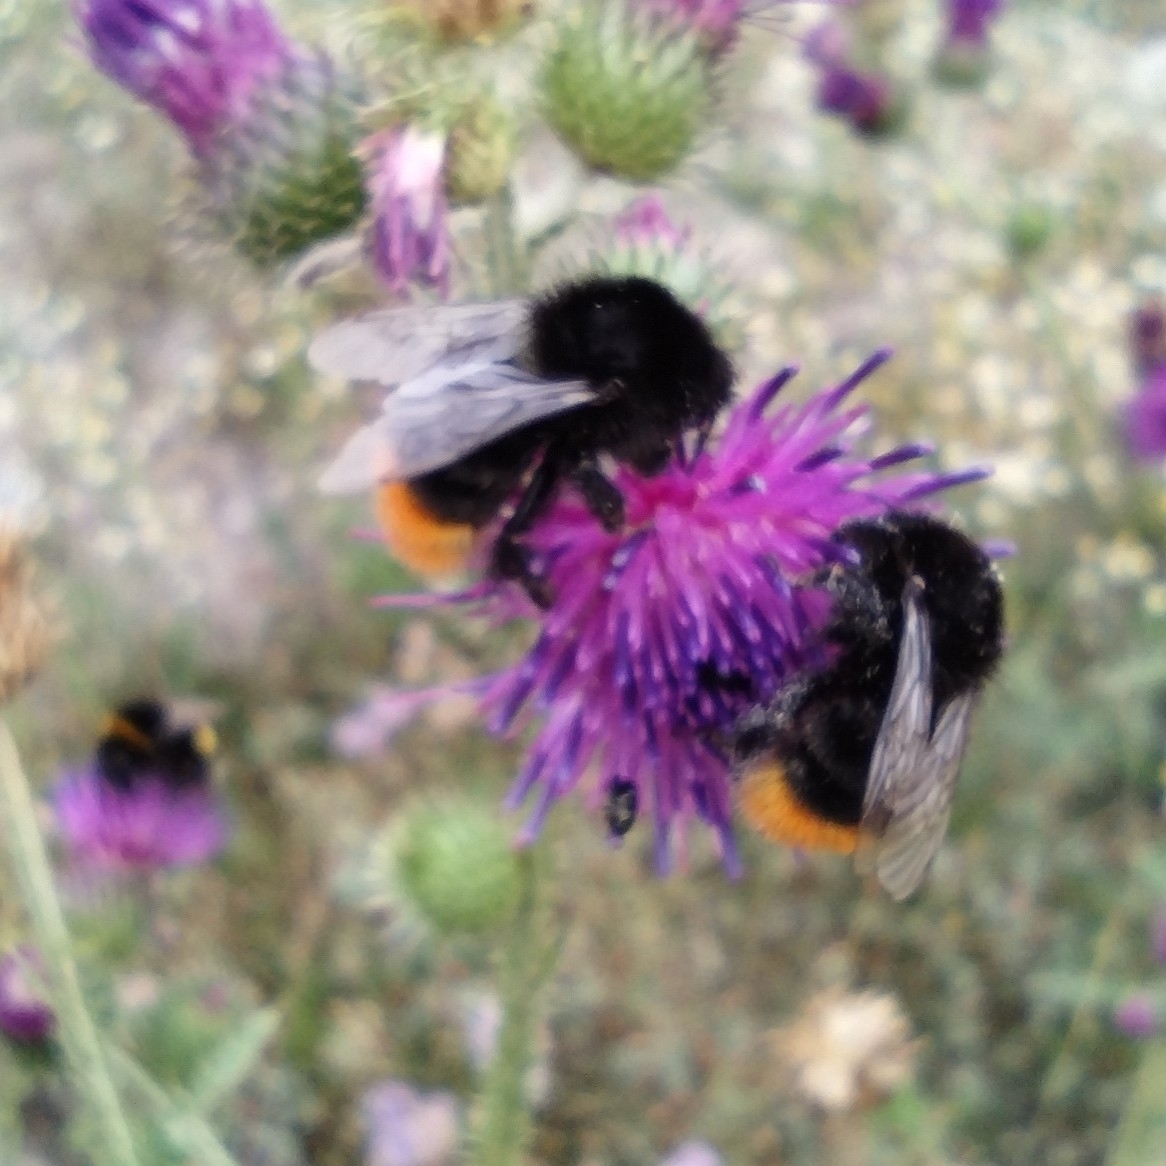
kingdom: Animalia
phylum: Arthropoda
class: Insecta
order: Hymenoptera
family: Apidae
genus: Bombus
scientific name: Bombus lapidarius
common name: Large red-tailed humble-bee
